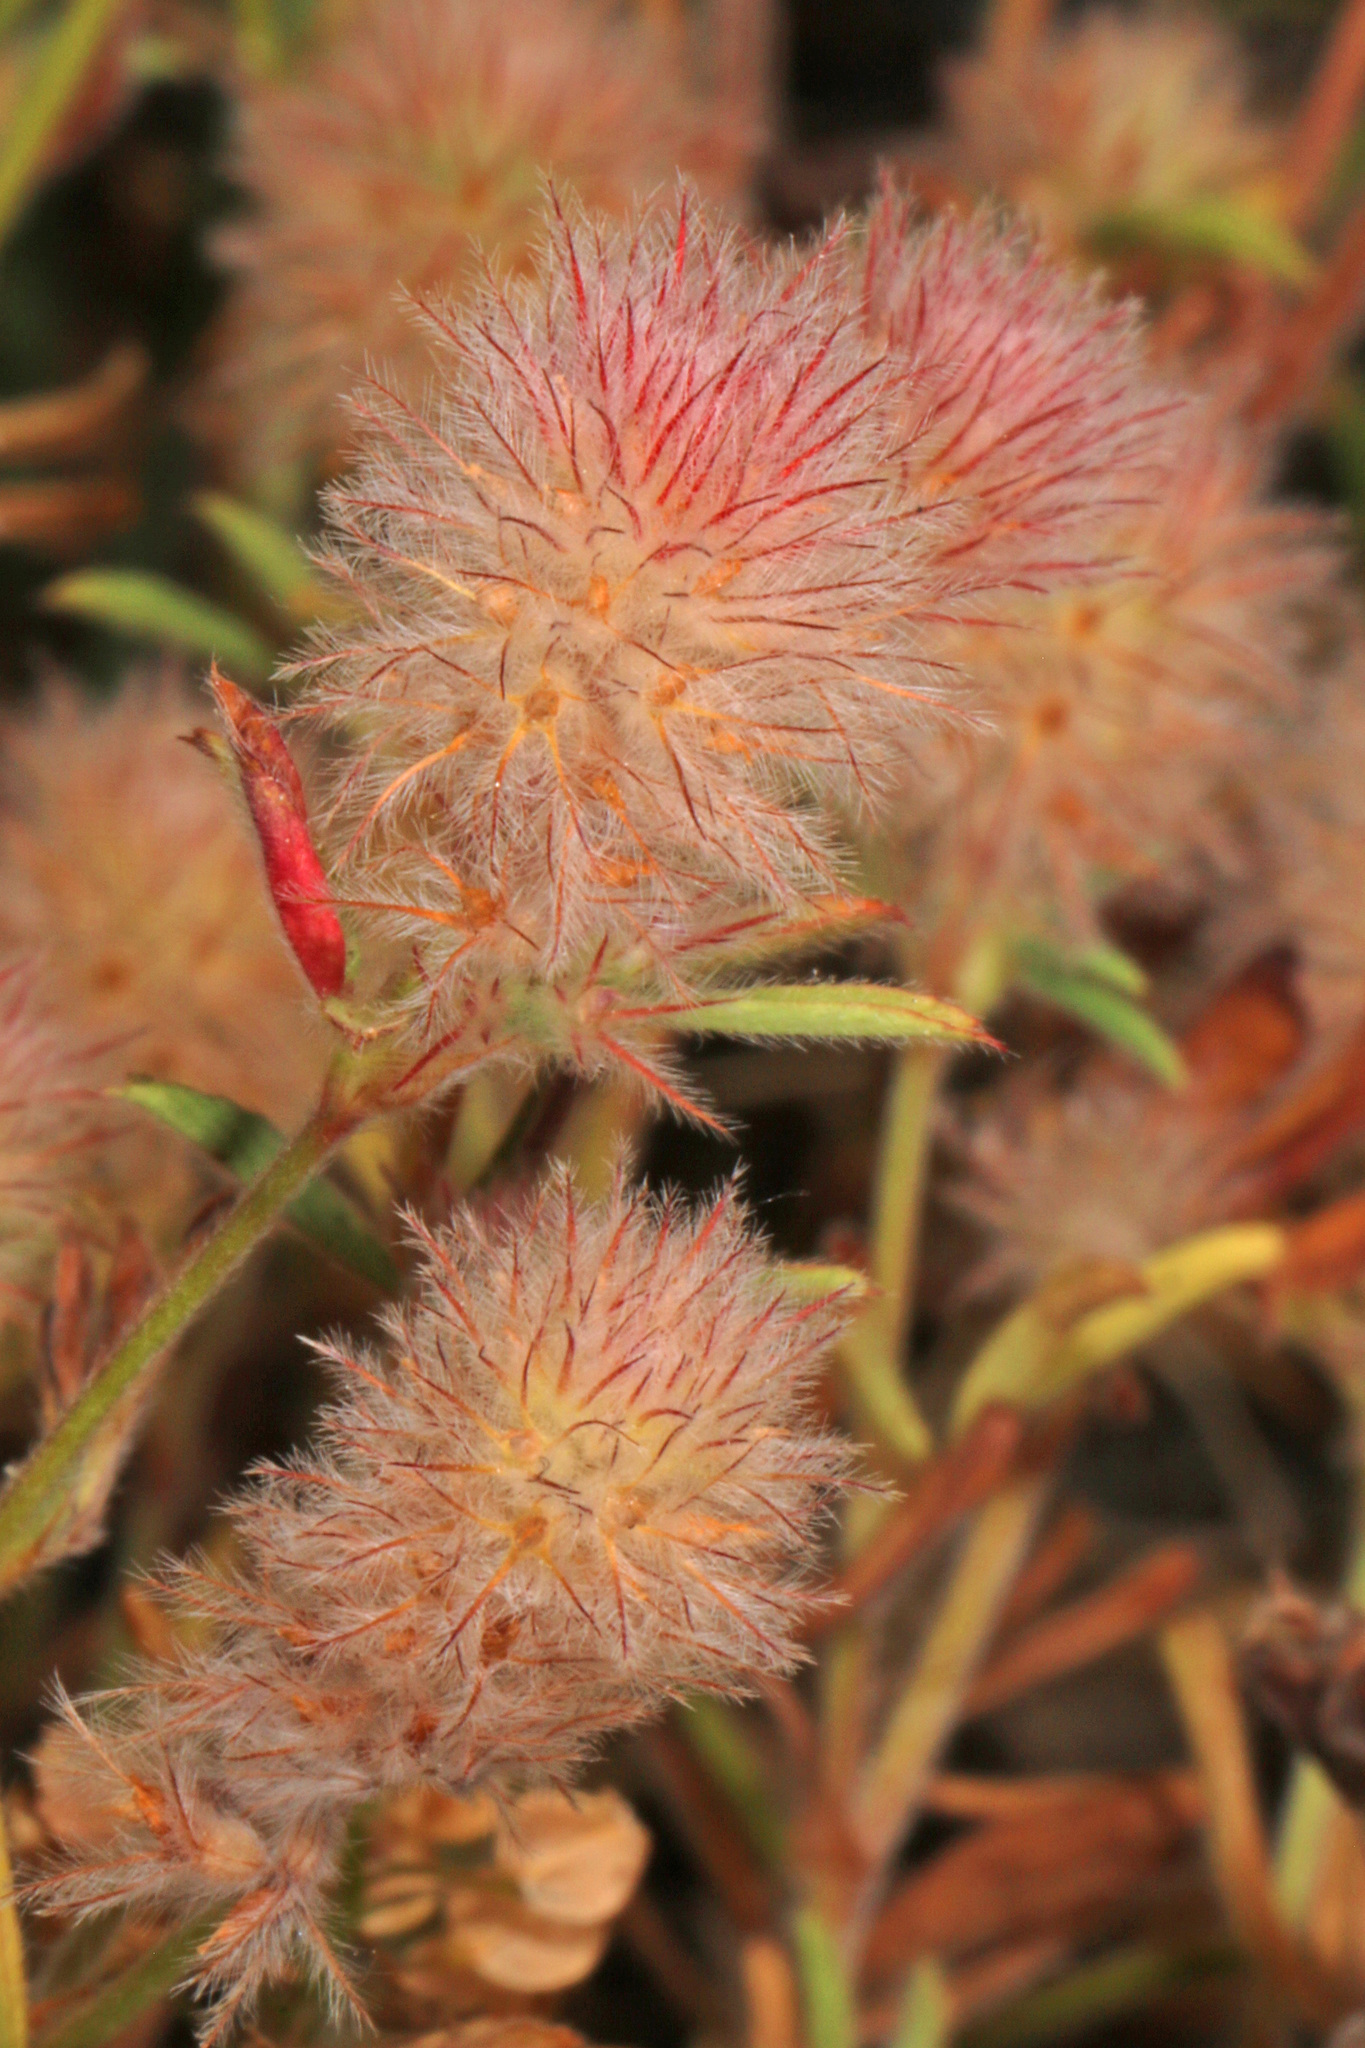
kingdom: Plantae
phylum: Tracheophyta
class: Magnoliopsida
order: Fabales
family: Fabaceae
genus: Trifolium
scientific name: Trifolium arvense
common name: Hare's-foot clover
